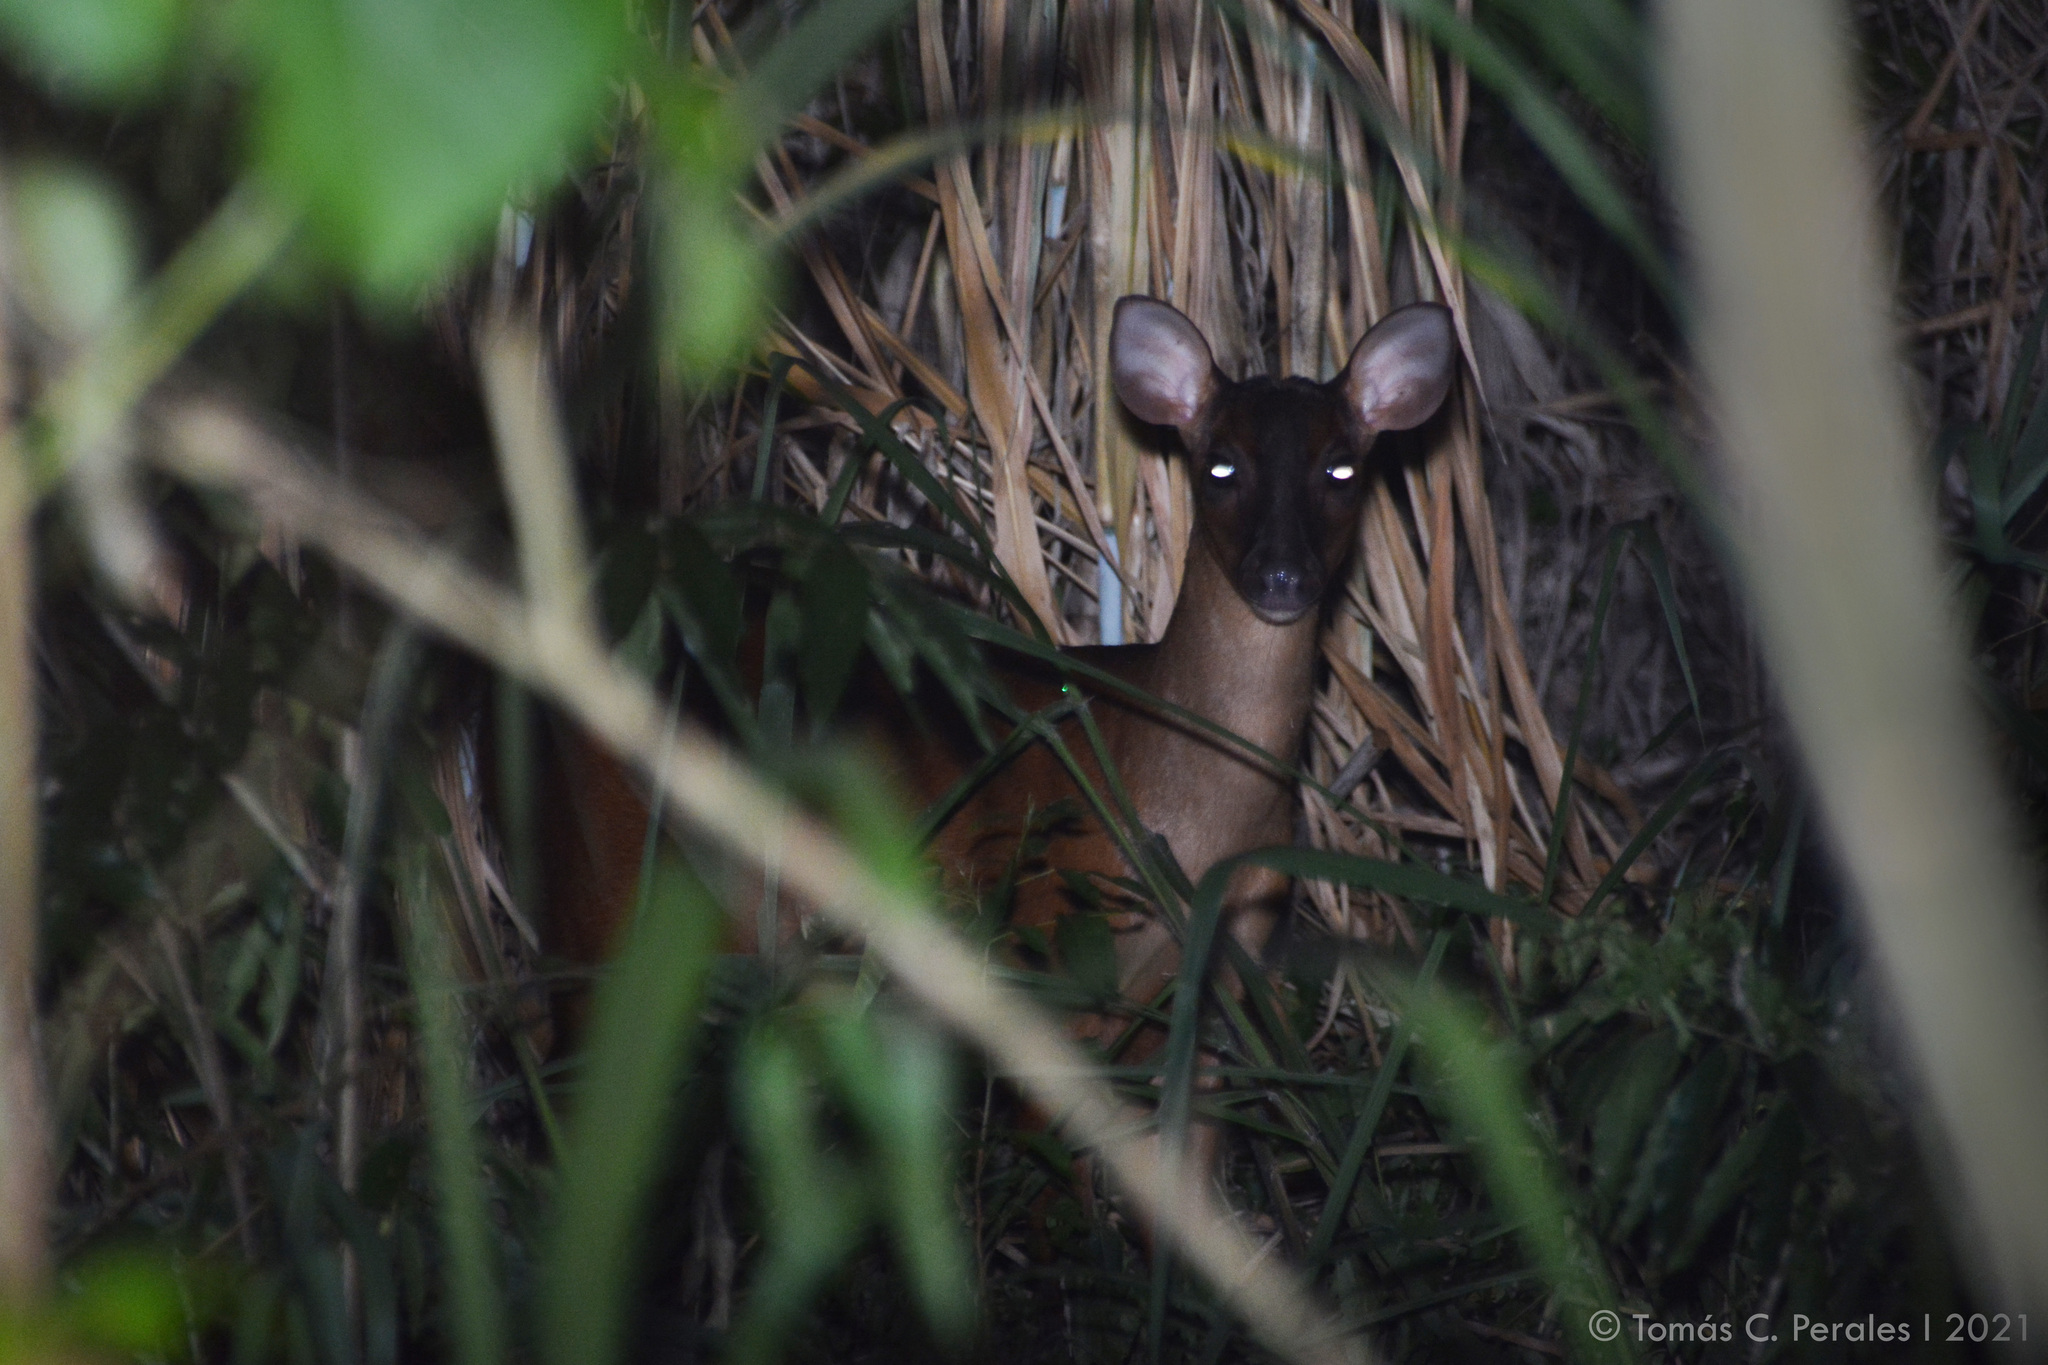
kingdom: Animalia
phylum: Chordata
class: Mammalia
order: Artiodactyla
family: Cervidae
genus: Mazama
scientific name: Mazama americana
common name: Red brocket
